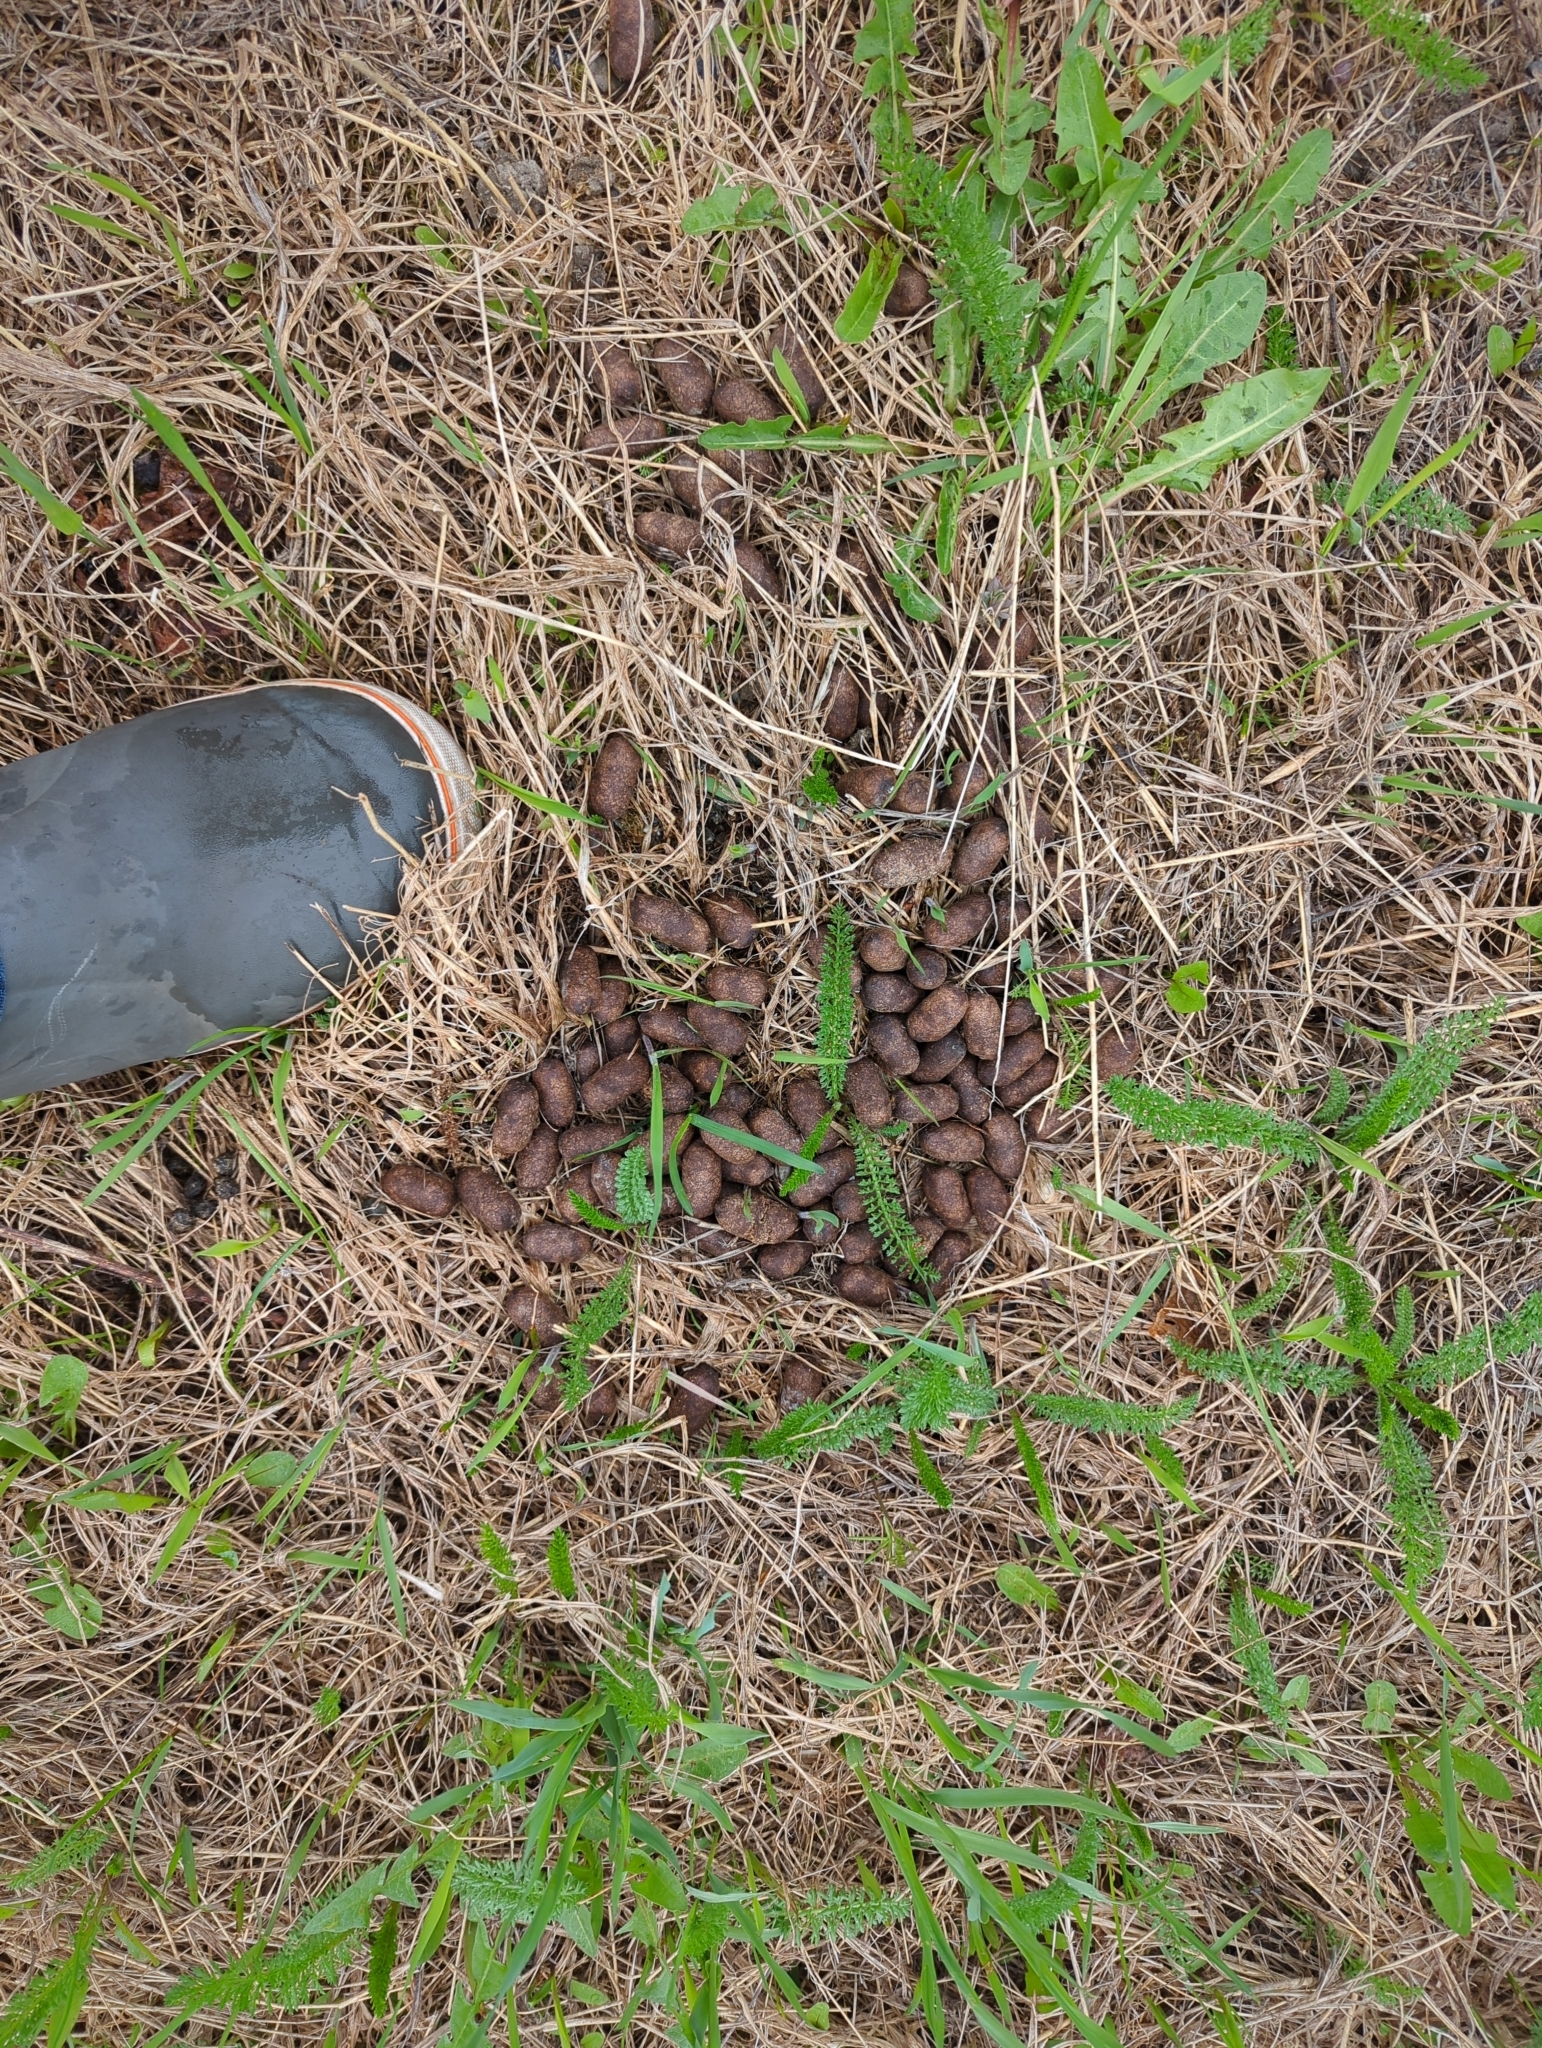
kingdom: Animalia
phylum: Chordata
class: Mammalia
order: Artiodactyla
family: Cervidae
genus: Alces
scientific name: Alces alces
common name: Moose
